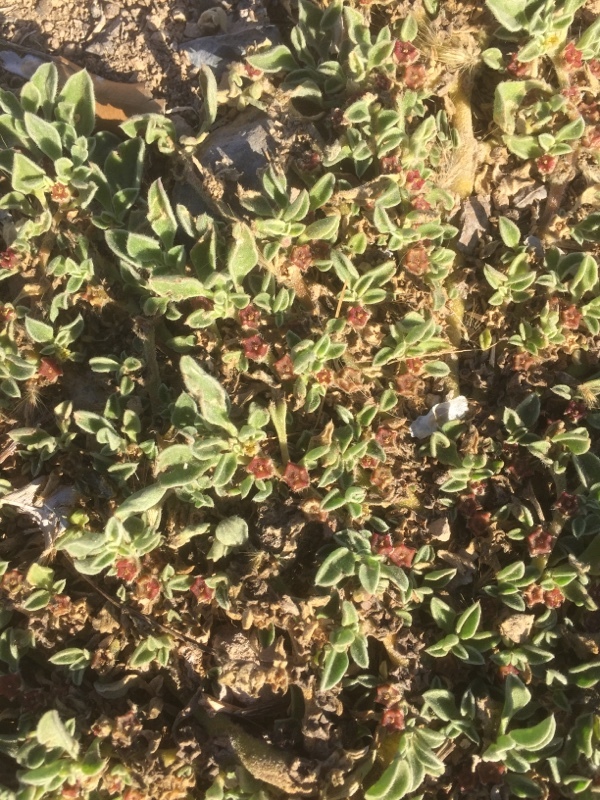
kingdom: Plantae
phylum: Tracheophyta
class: Magnoliopsida
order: Caryophyllales
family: Aizoaceae
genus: Aizoon
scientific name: Aizoon canariense
